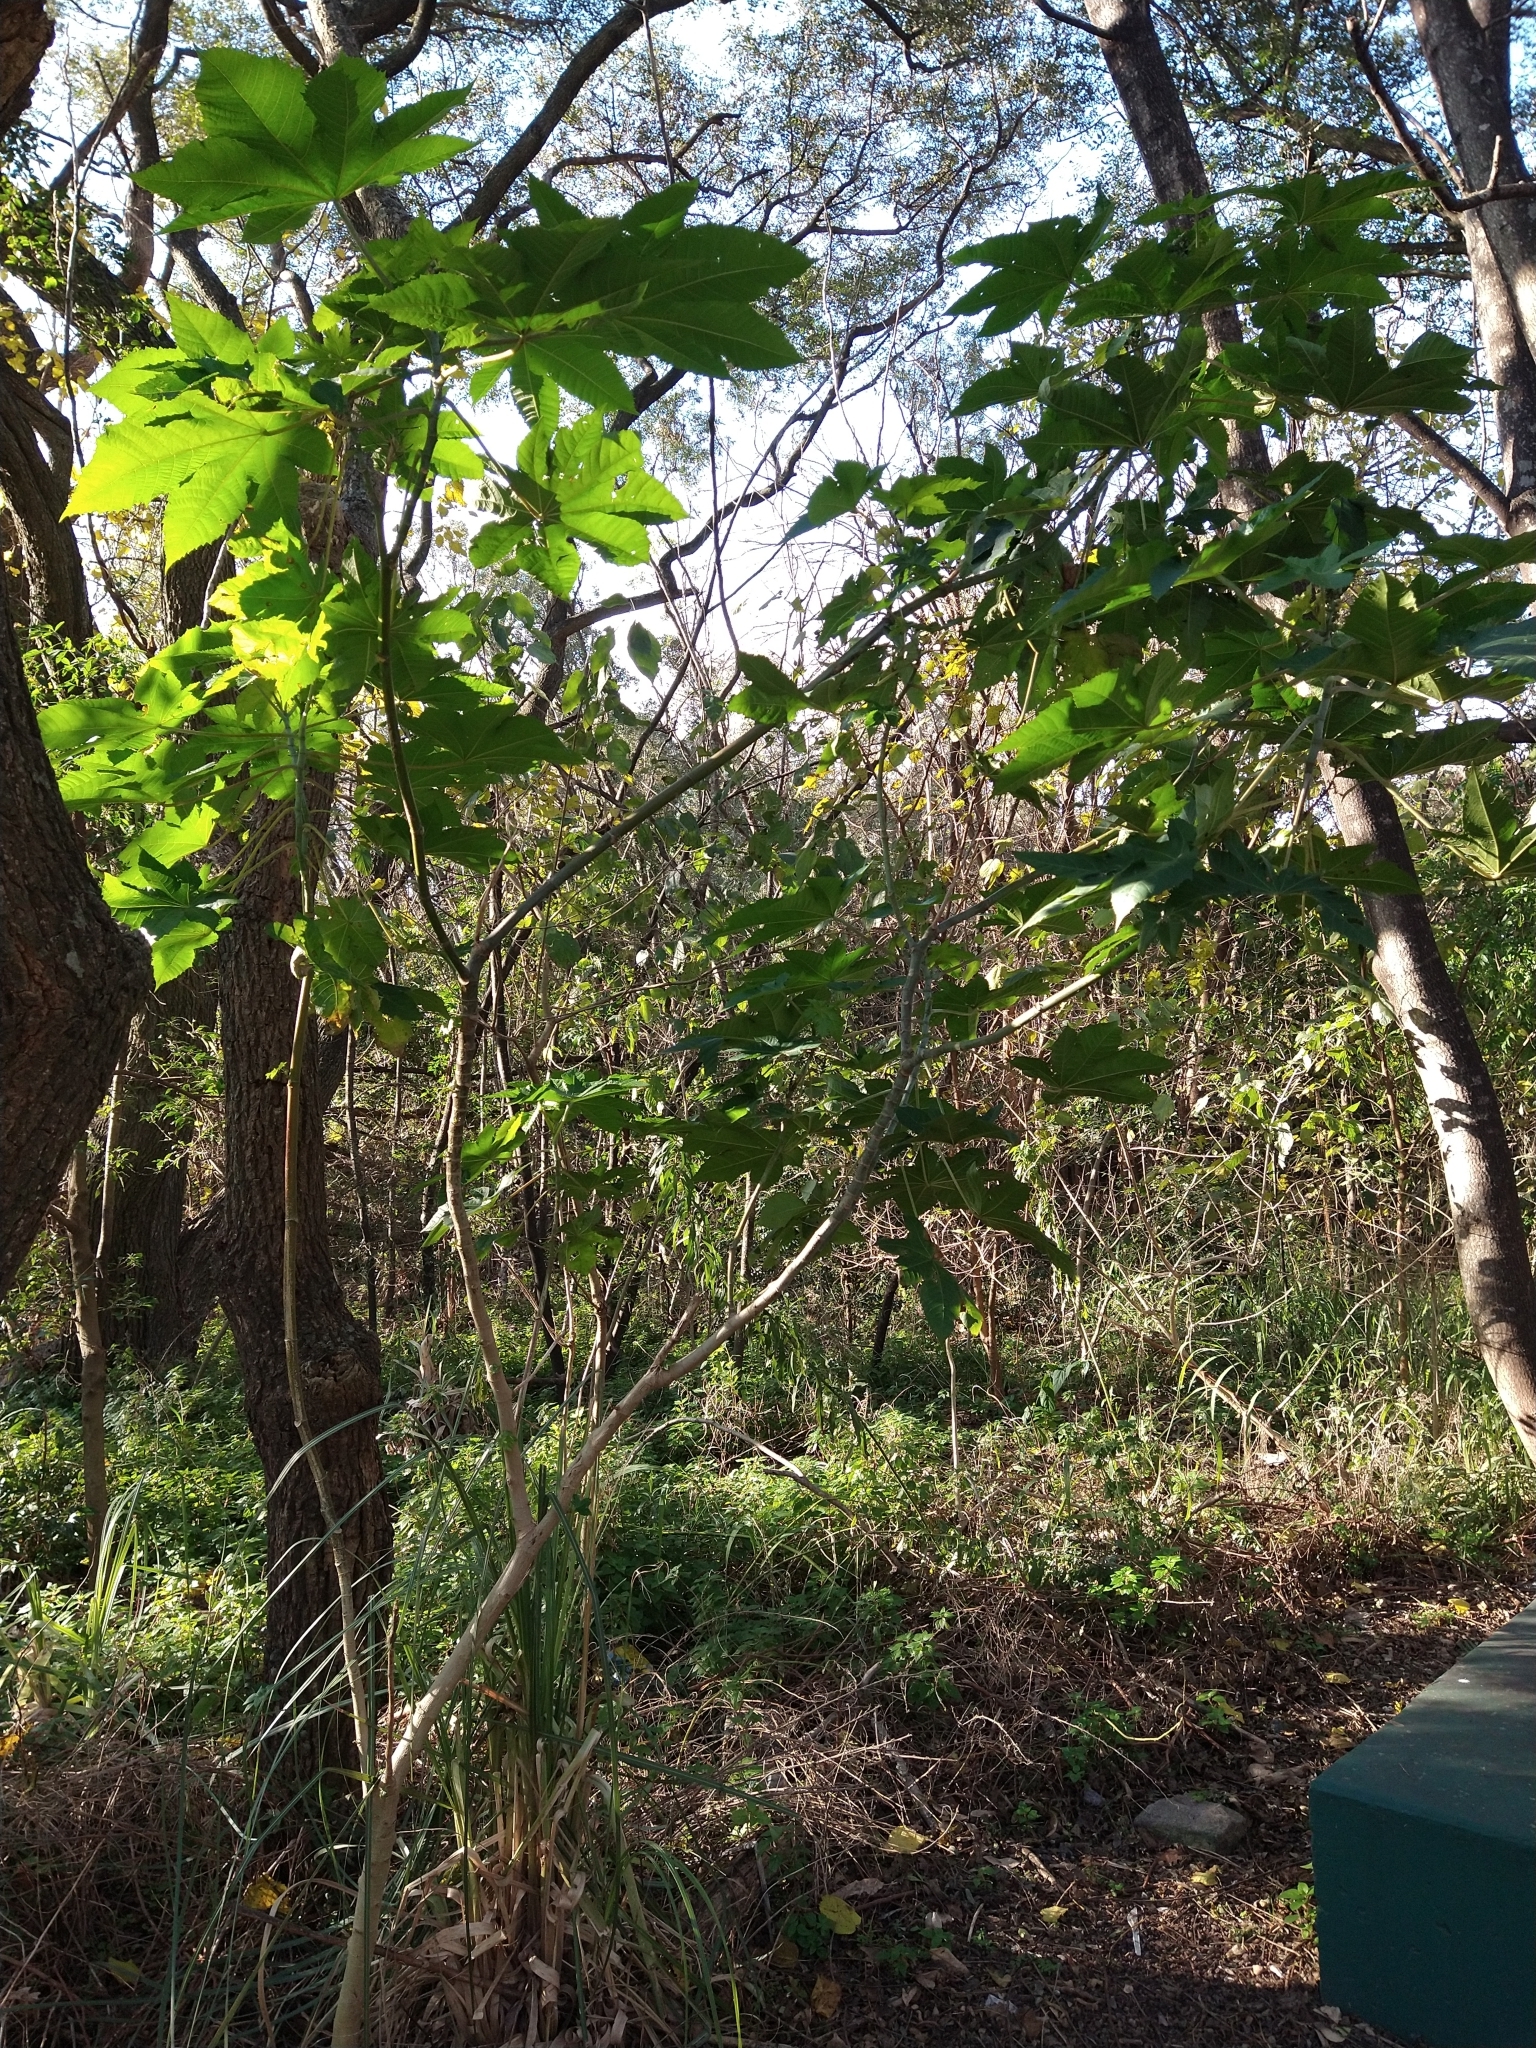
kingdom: Plantae
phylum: Tracheophyta
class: Magnoliopsida
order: Malpighiales
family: Euphorbiaceae
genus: Ricinus
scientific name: Ricinus communis
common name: Castor-oil-plant
